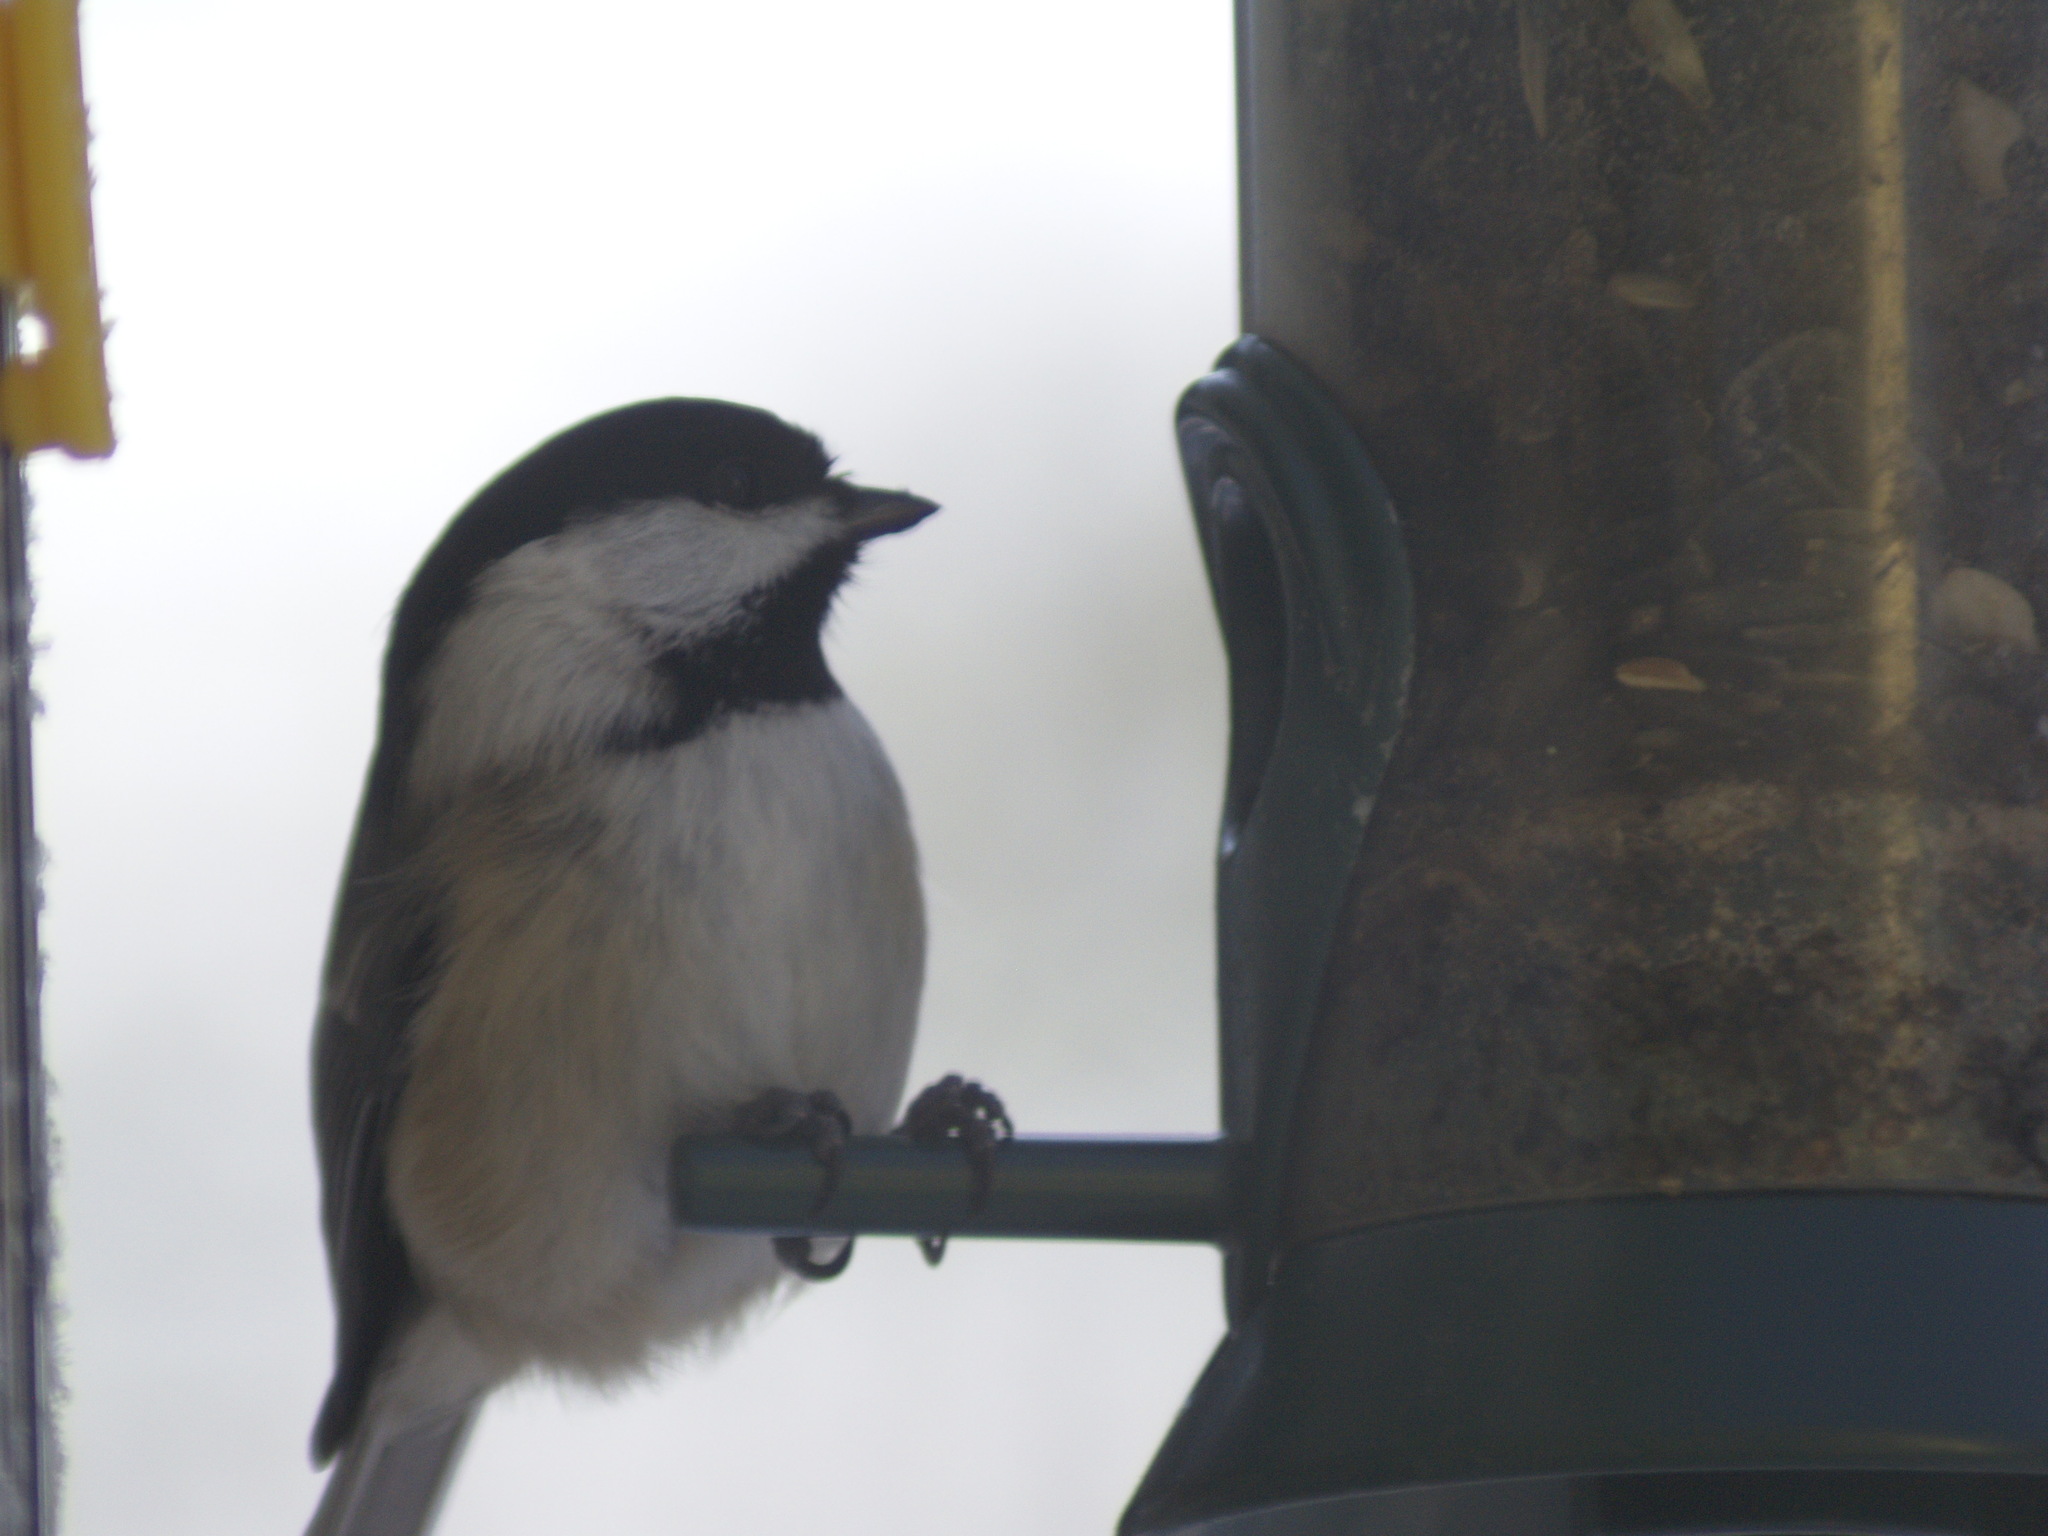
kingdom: Animalia
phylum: Chordata
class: Aves
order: Passeriformes
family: Paridae
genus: Poecile
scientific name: Poecile atricapillus
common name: Black-capped chickadee
